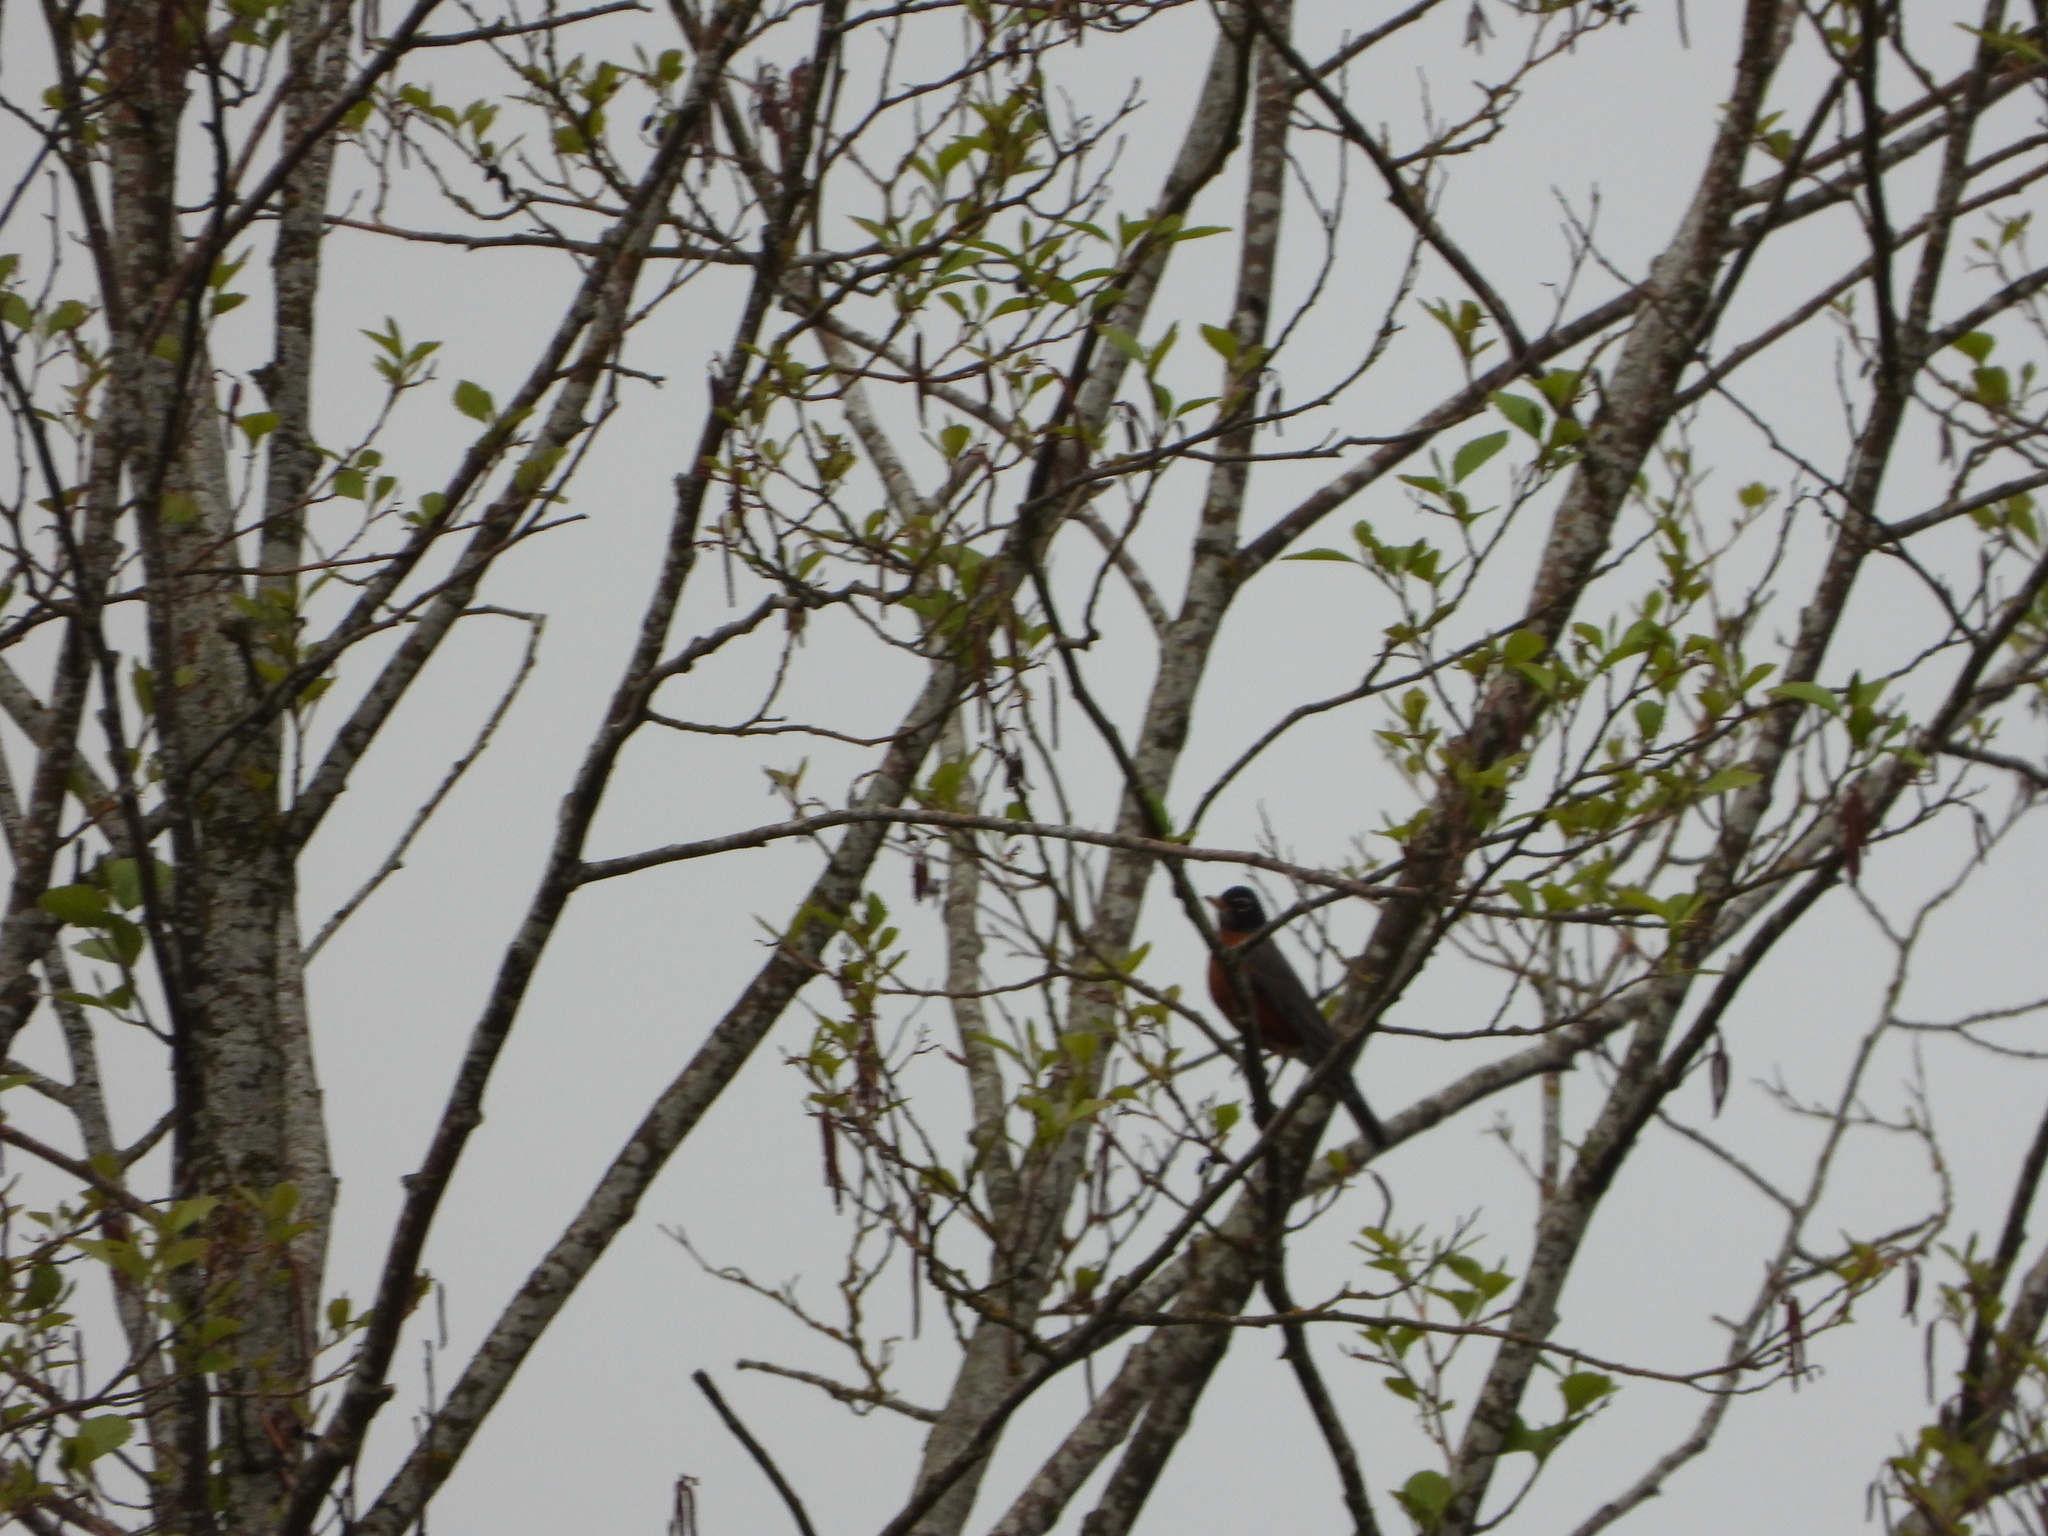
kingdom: Animalia
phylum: Chordata
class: Aves
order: Passeriformes
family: Turdidae
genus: Turdus
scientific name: Turdus migratorius
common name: American robin
